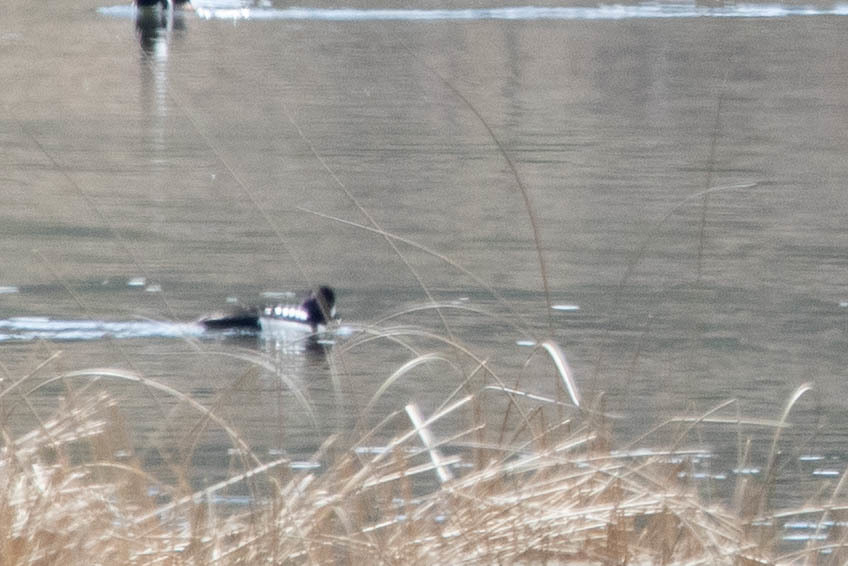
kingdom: Animalia
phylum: Chordata
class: Aves
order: Anseriformes
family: Anatidae
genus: Bucephala
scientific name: Bucephala islandica
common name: Barrow's goldeneye
